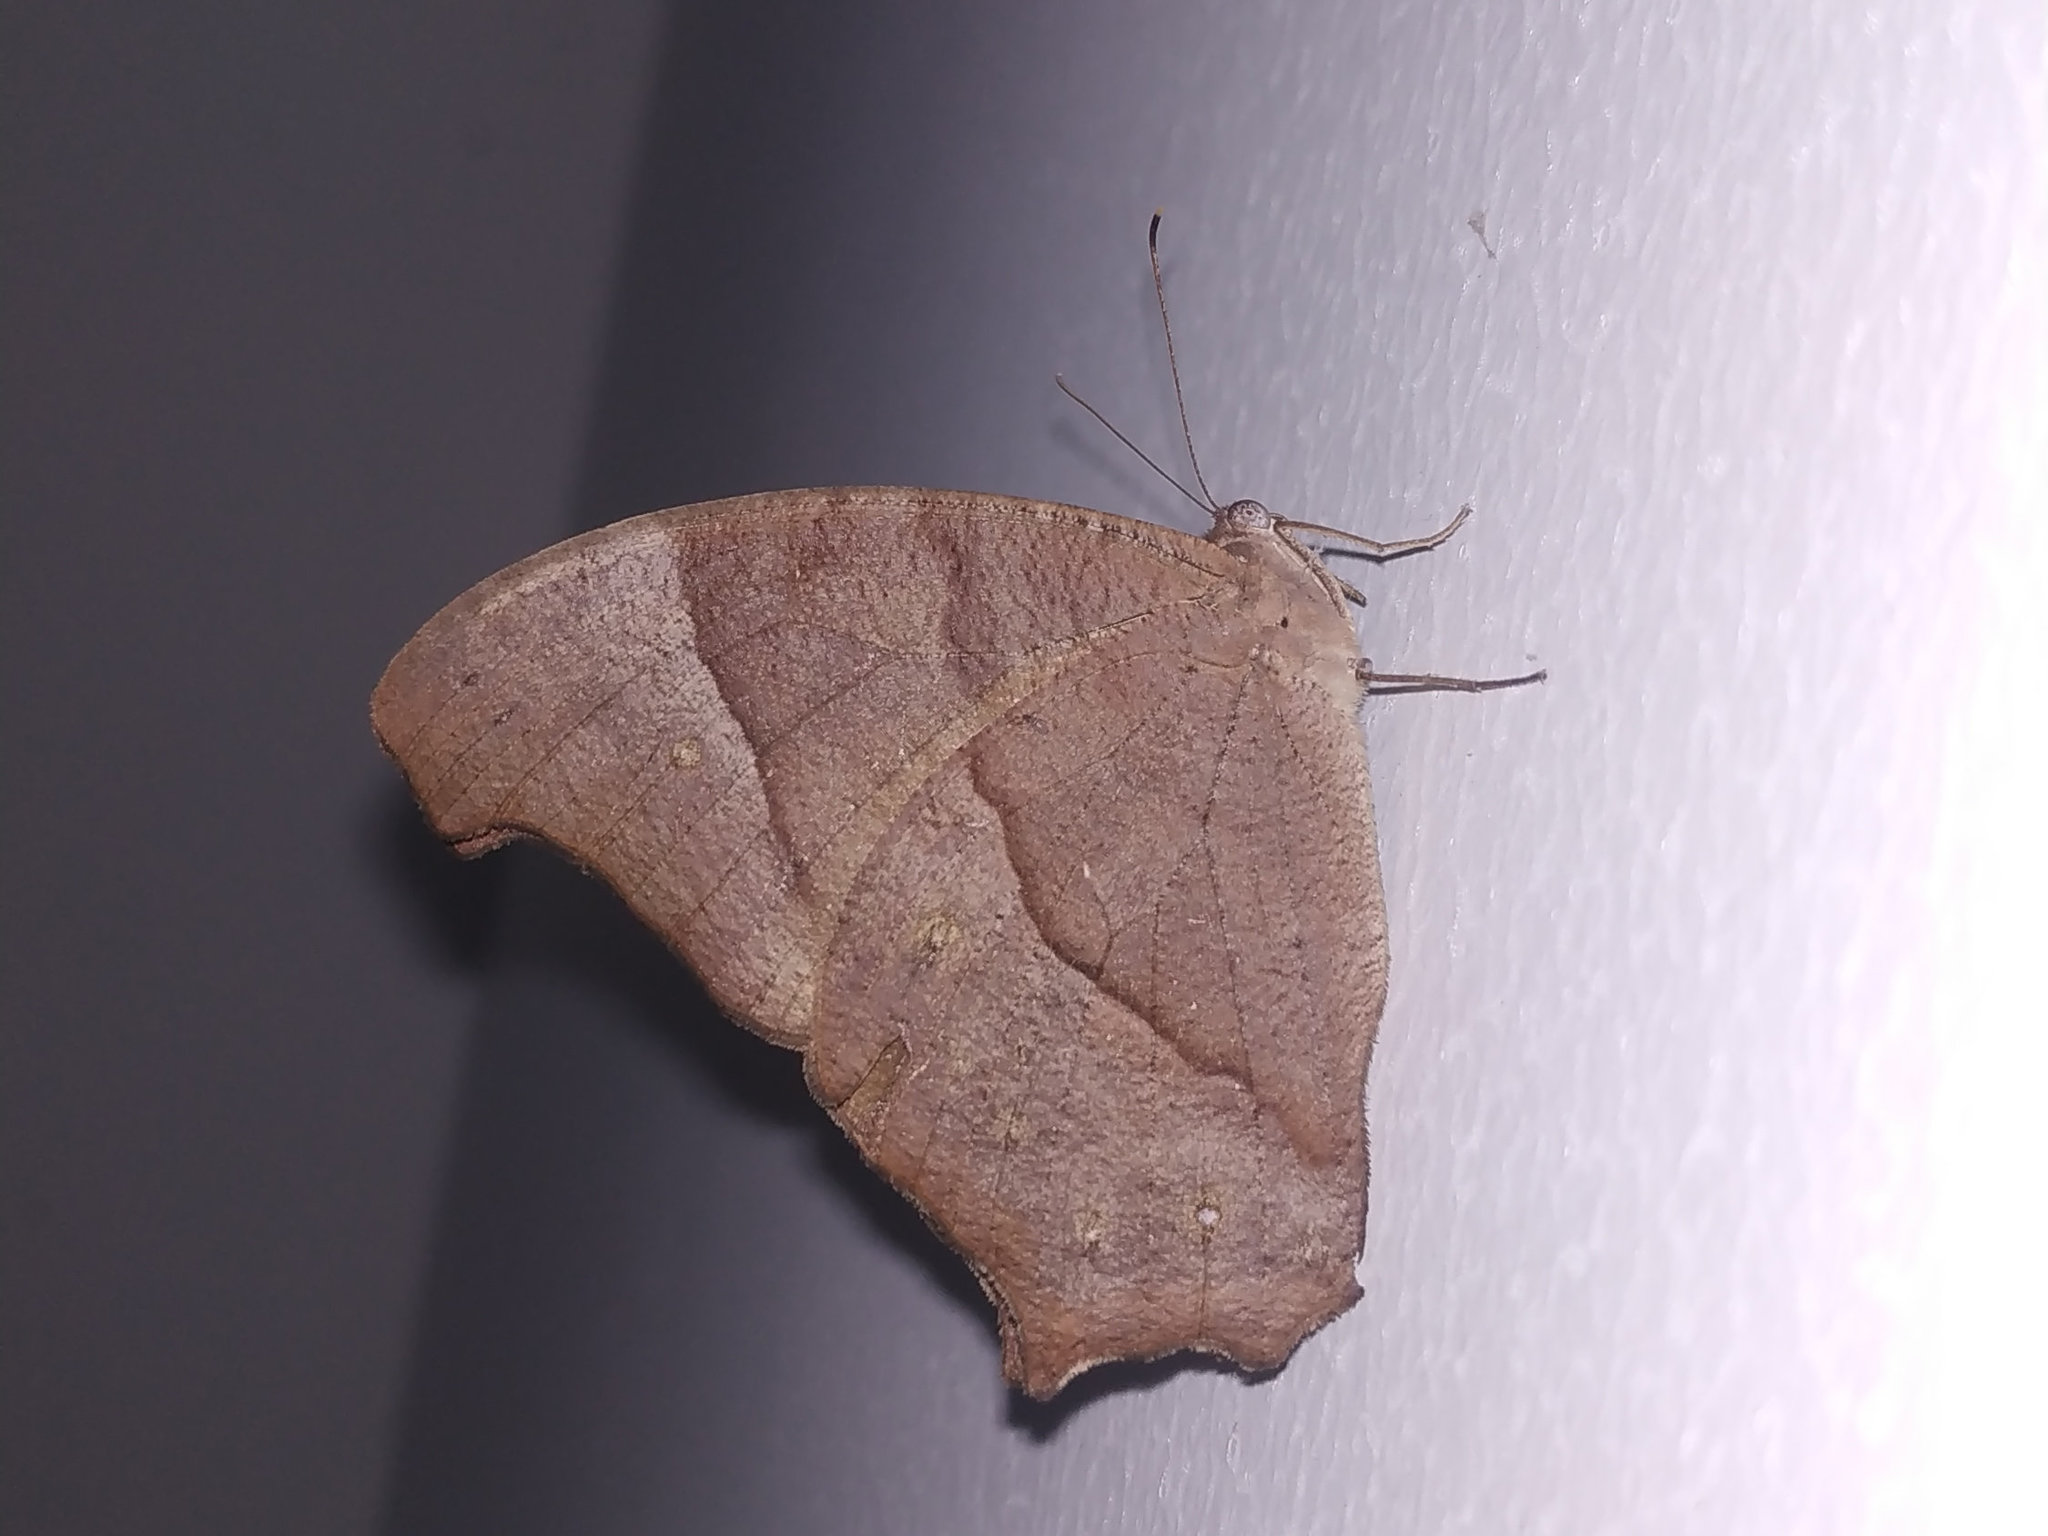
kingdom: Animalia
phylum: Arthropoda
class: Insecta
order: Lepidoptera
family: Nymphalidae
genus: Melanitis
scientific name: Melanitis leda
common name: Twilight brown
